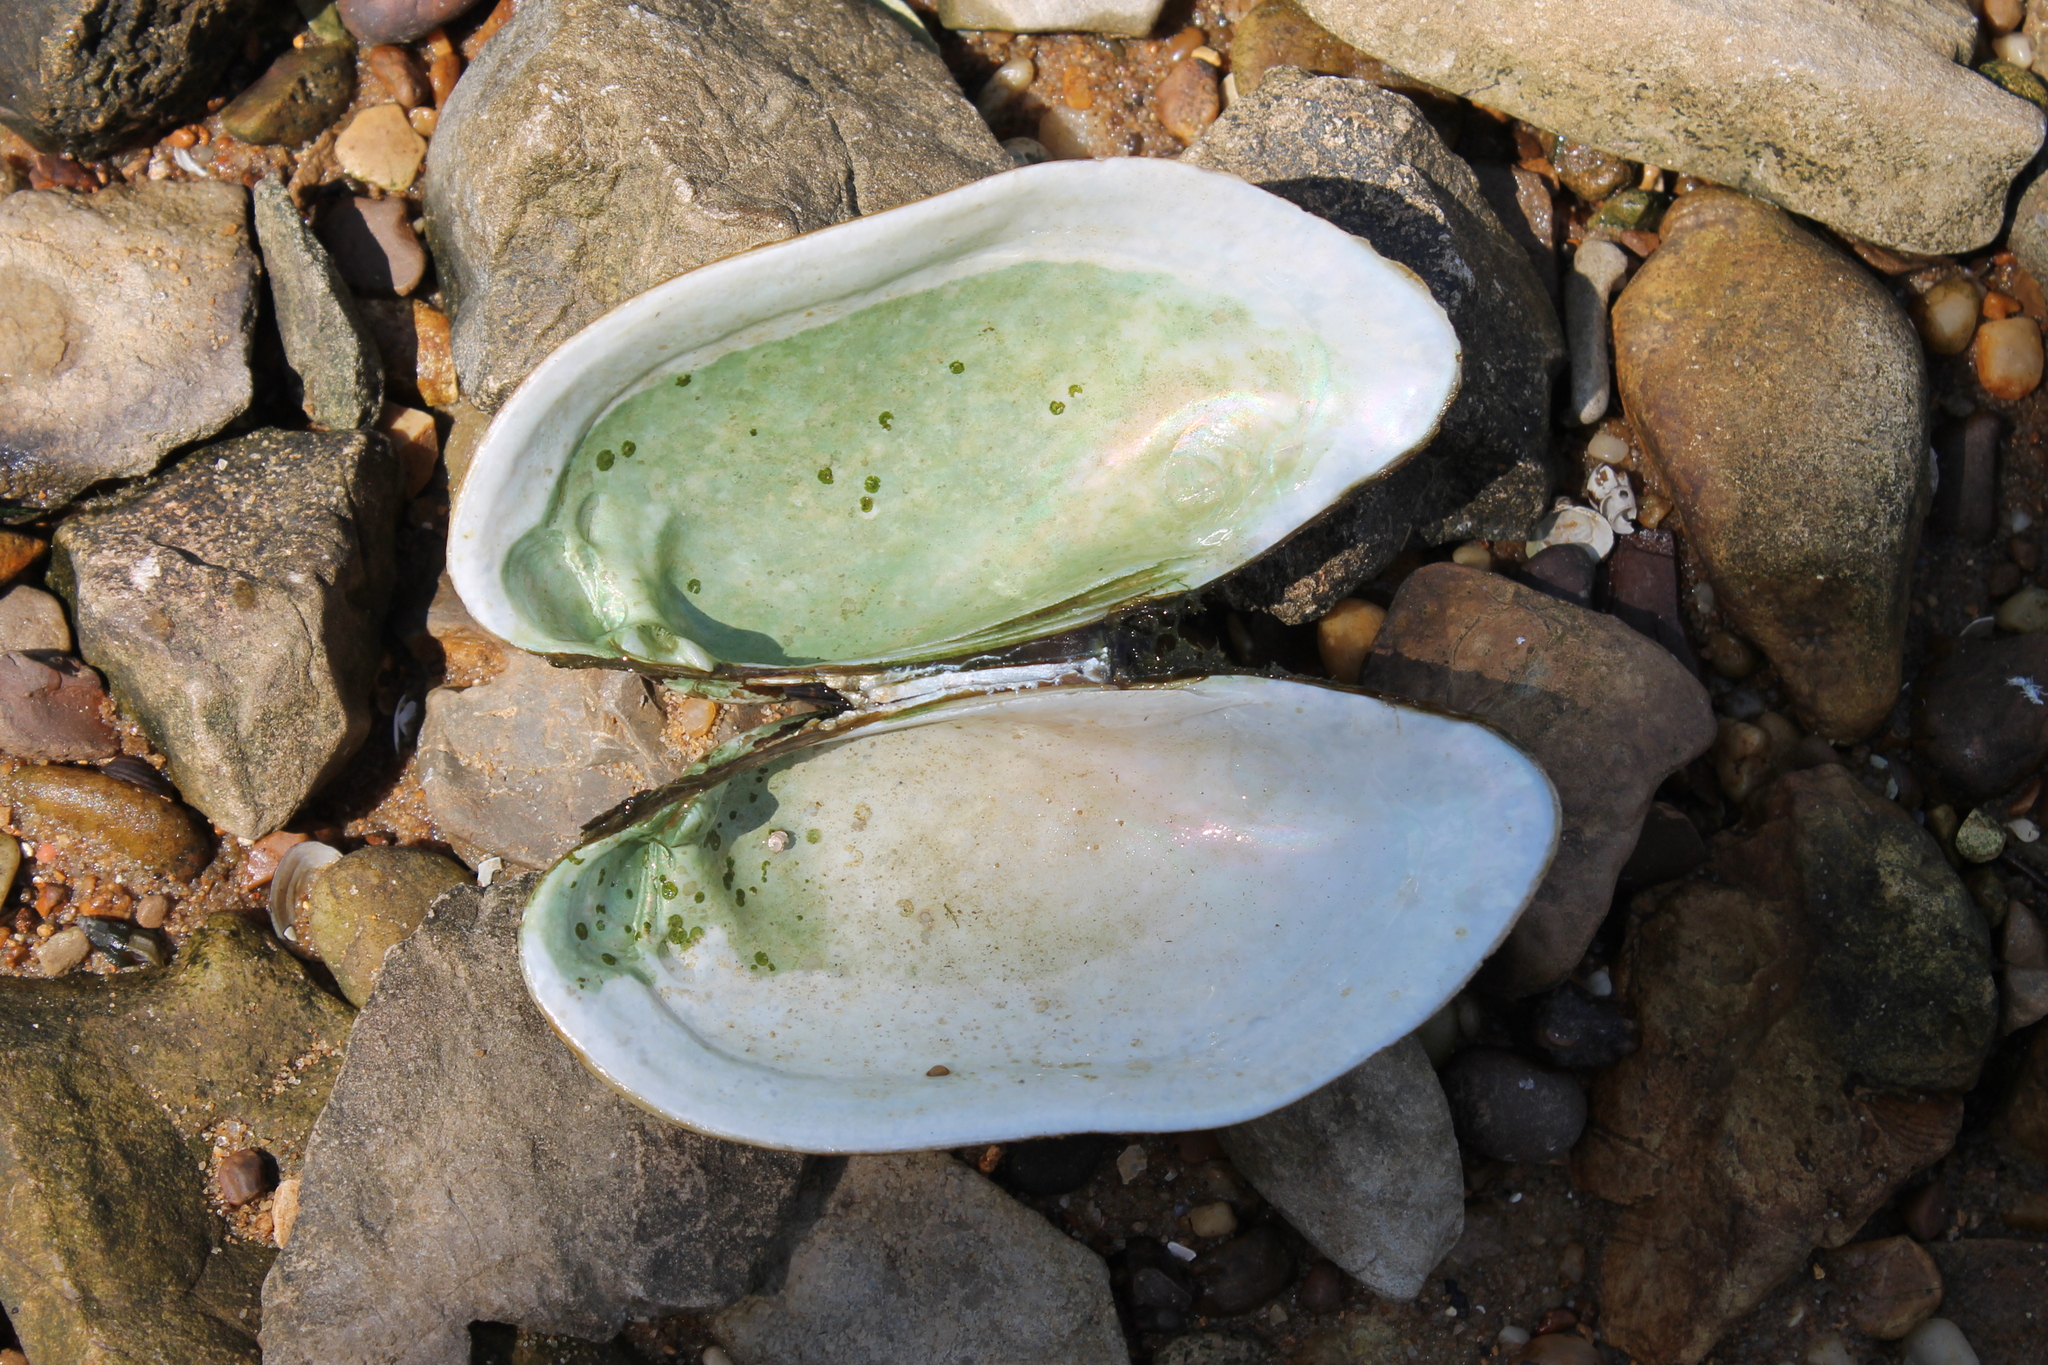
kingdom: Animalia
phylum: Mollusca
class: Bivalvia
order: Unionida
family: Unionidae
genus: Lampsilis
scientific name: Lampsilis teres
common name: Yellow sandshell
